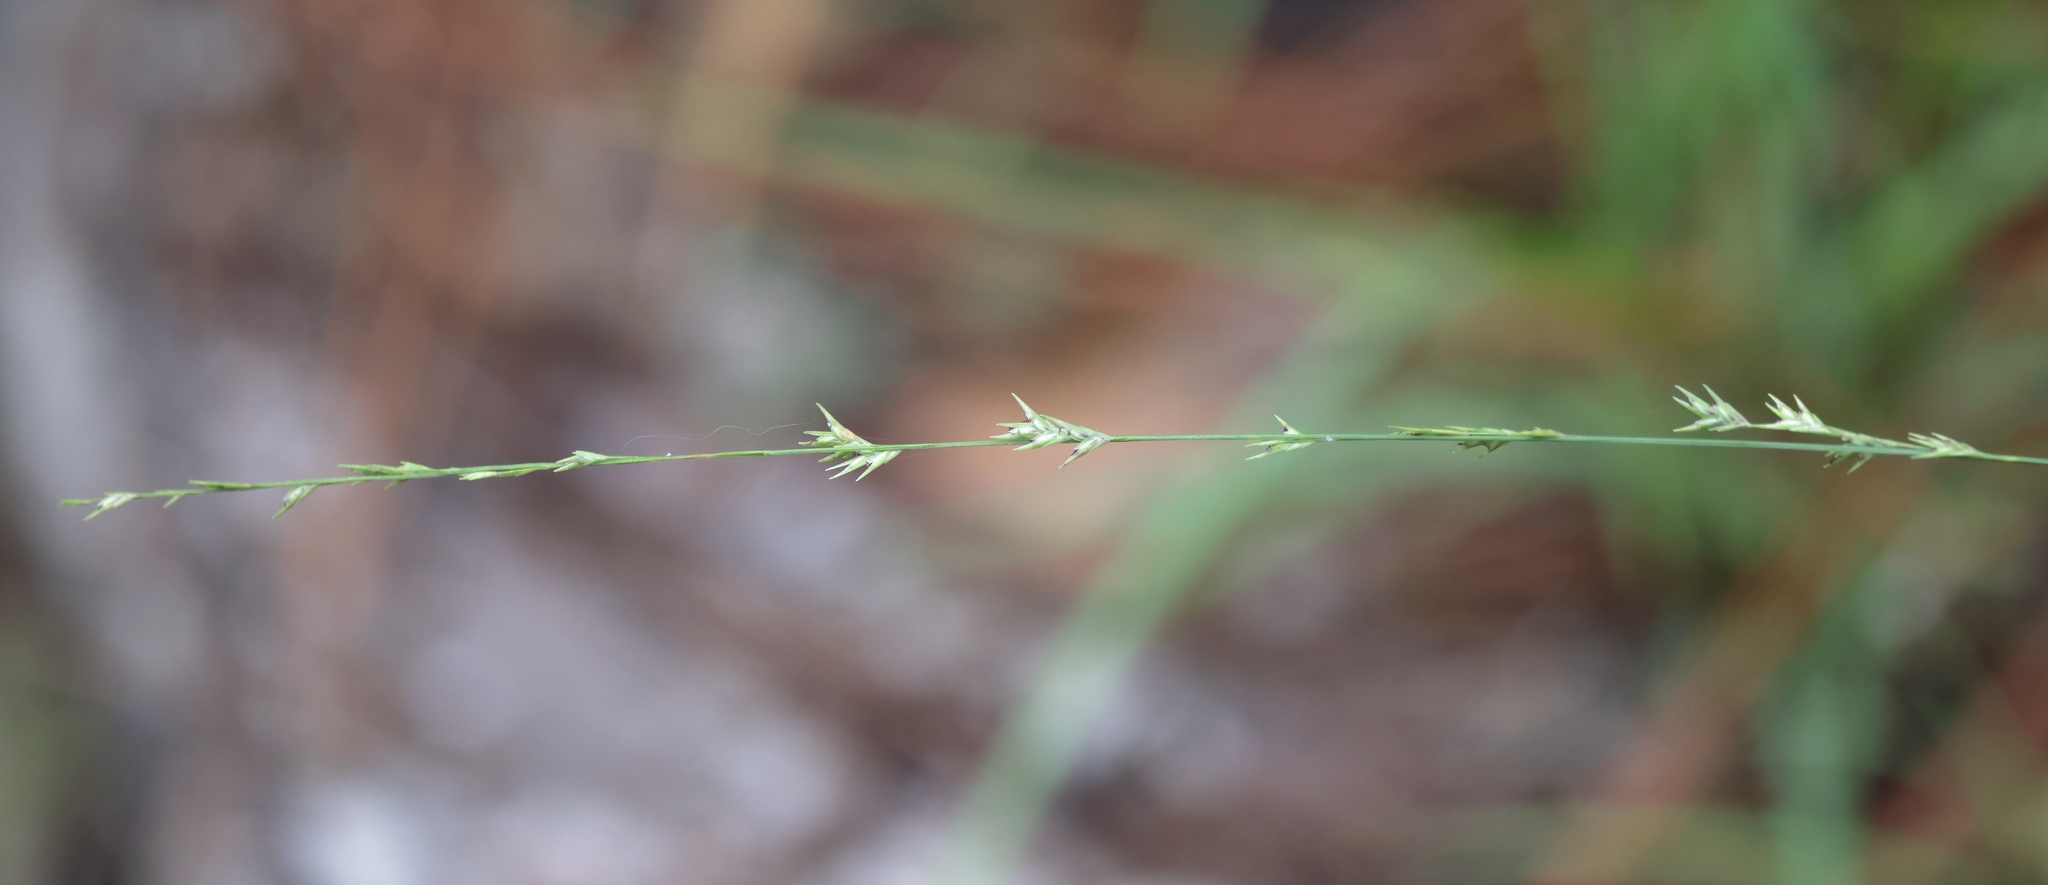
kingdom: Plantae
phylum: Tracheophyta
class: Liliopsida
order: Poales
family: Poaceae
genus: Chasmanthium
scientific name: Chasmanthium laxum
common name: Slender chasmanthium
